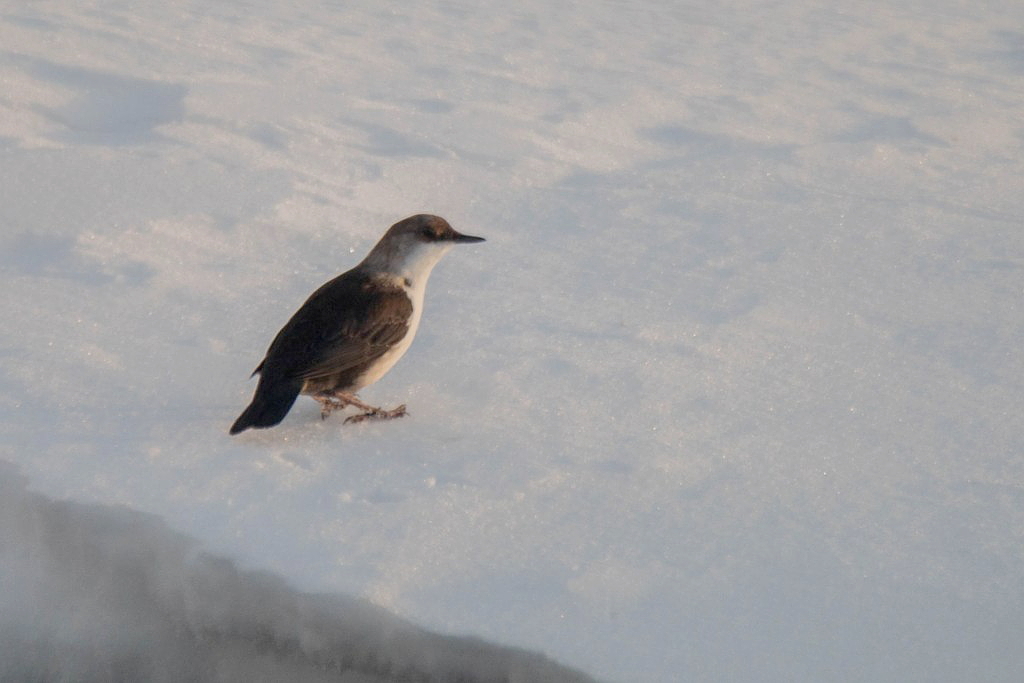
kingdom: Animalia
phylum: Chordata
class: Aves
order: Passeriformes
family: Cinclidae
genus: Cinclus
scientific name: Cinclus cinclus
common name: White-throated dipper
